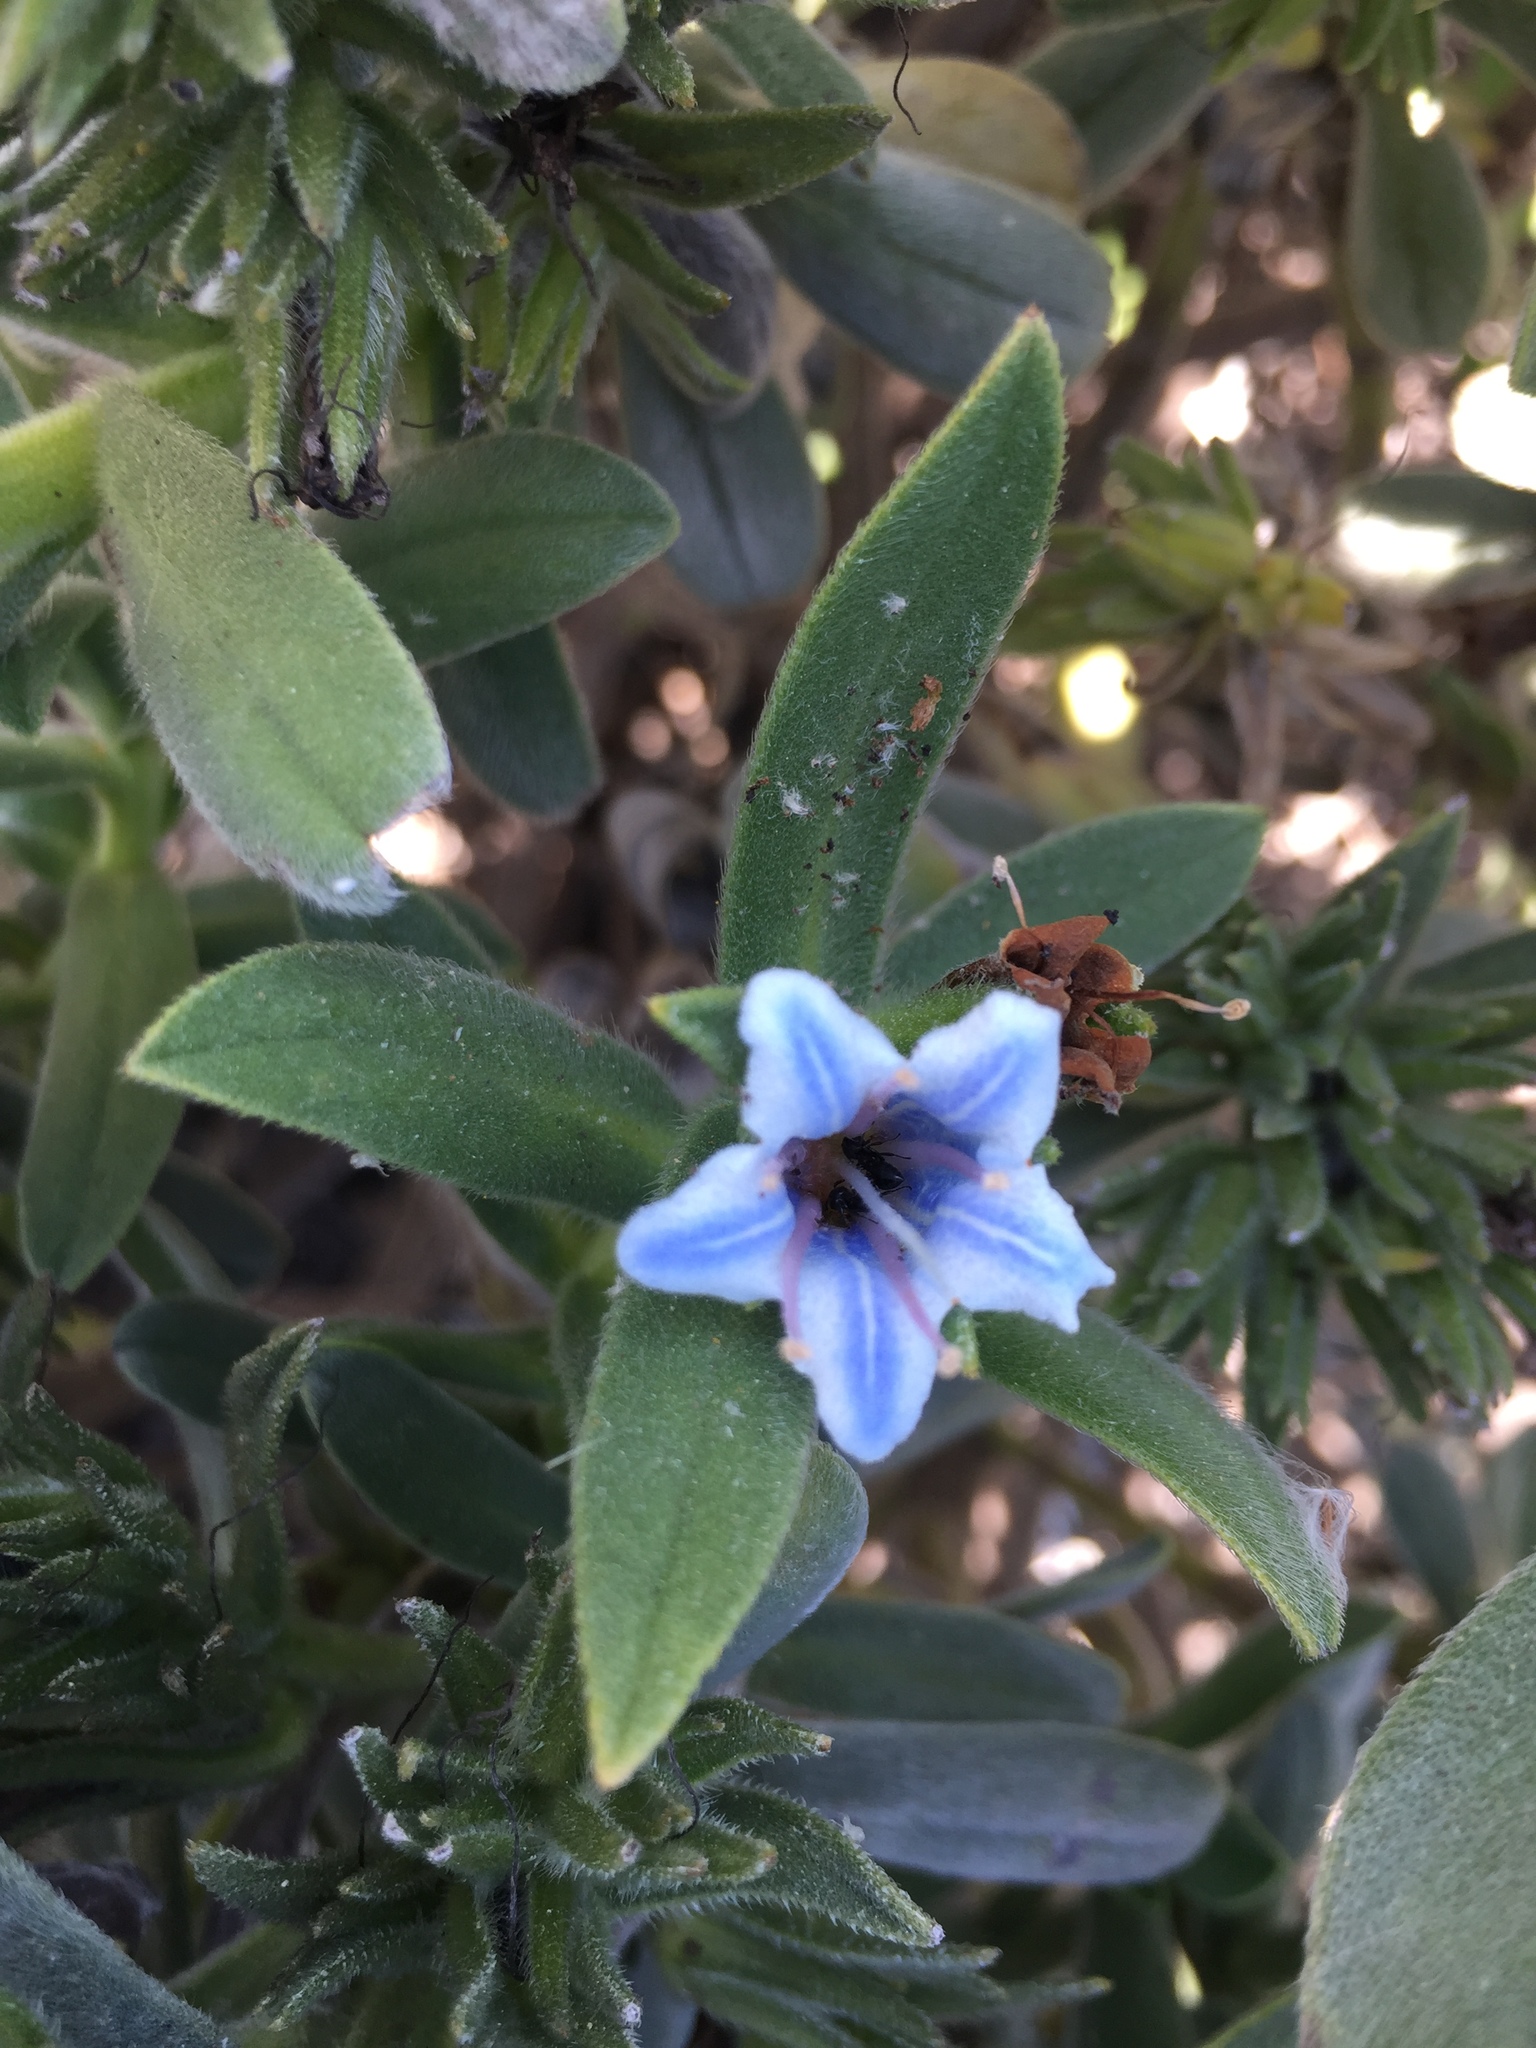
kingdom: Plantae
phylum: Tracheophyta
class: Magnoliopsida
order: Boraginales
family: Boraginaceae
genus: Lobostemon
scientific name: Lobostemon montanus
